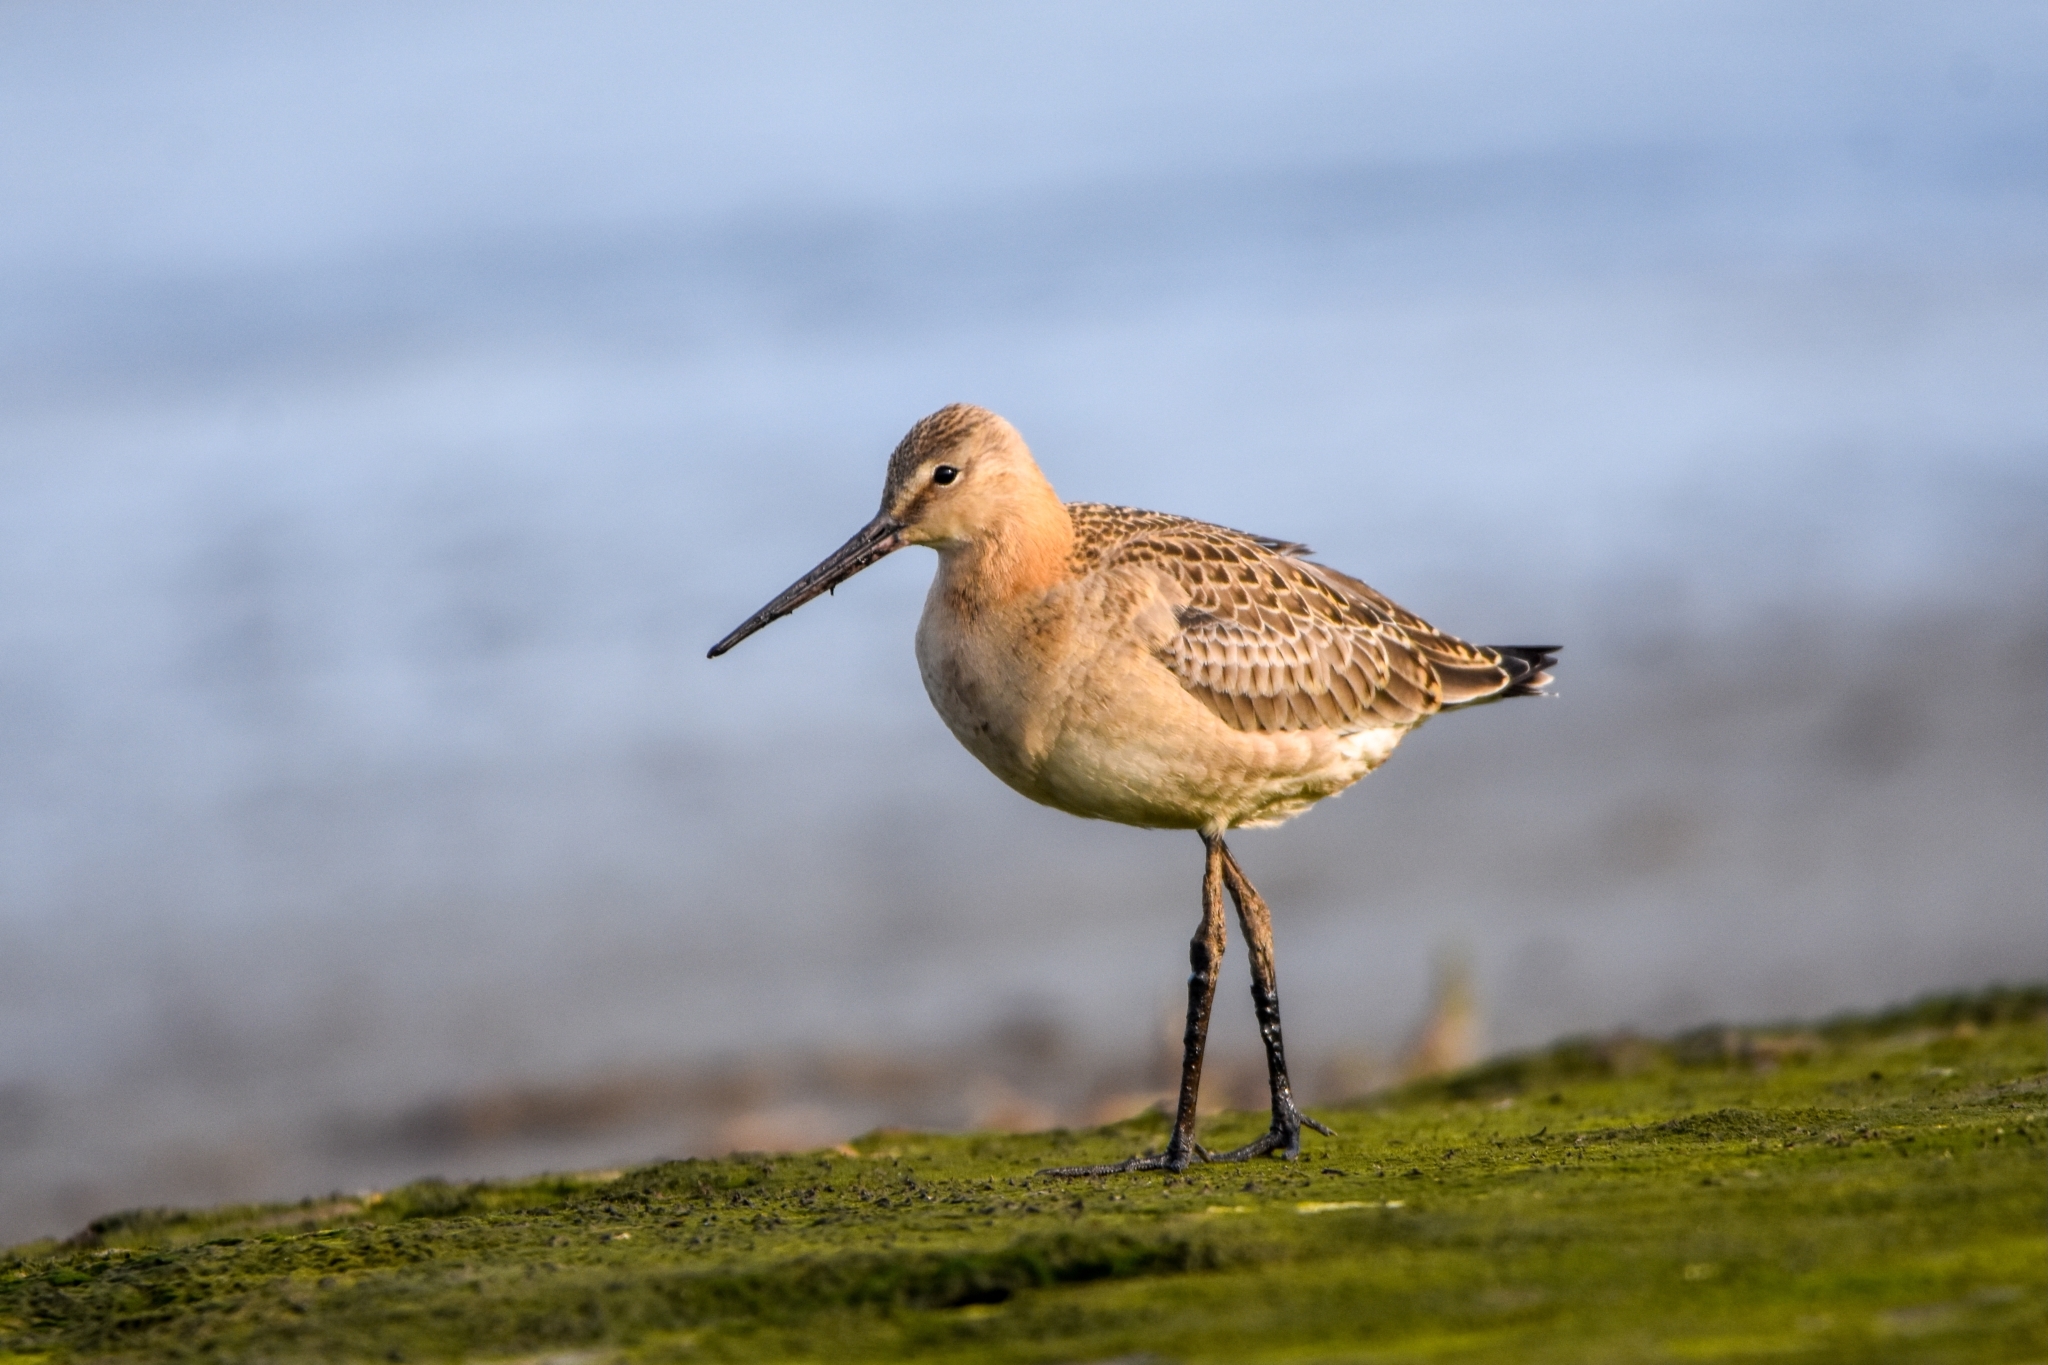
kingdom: Animalia
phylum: Chordata
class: Aves
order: Charadriiformes
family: Scolopacidae
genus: Limosa
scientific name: Limosa limosa
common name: Black-tailed godwit
